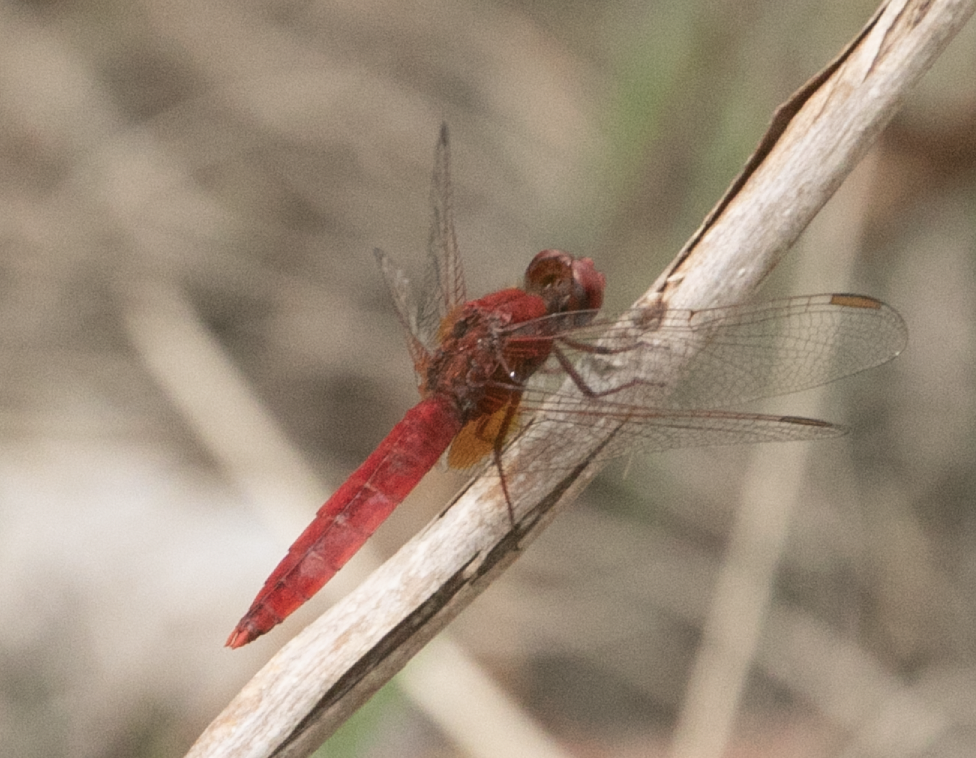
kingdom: Animalia
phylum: Arthropoda
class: Insecta
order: Odonata
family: Libellulidae
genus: Crocothemis
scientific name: Crocothemis erythraea
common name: Scarlet dragonfly
